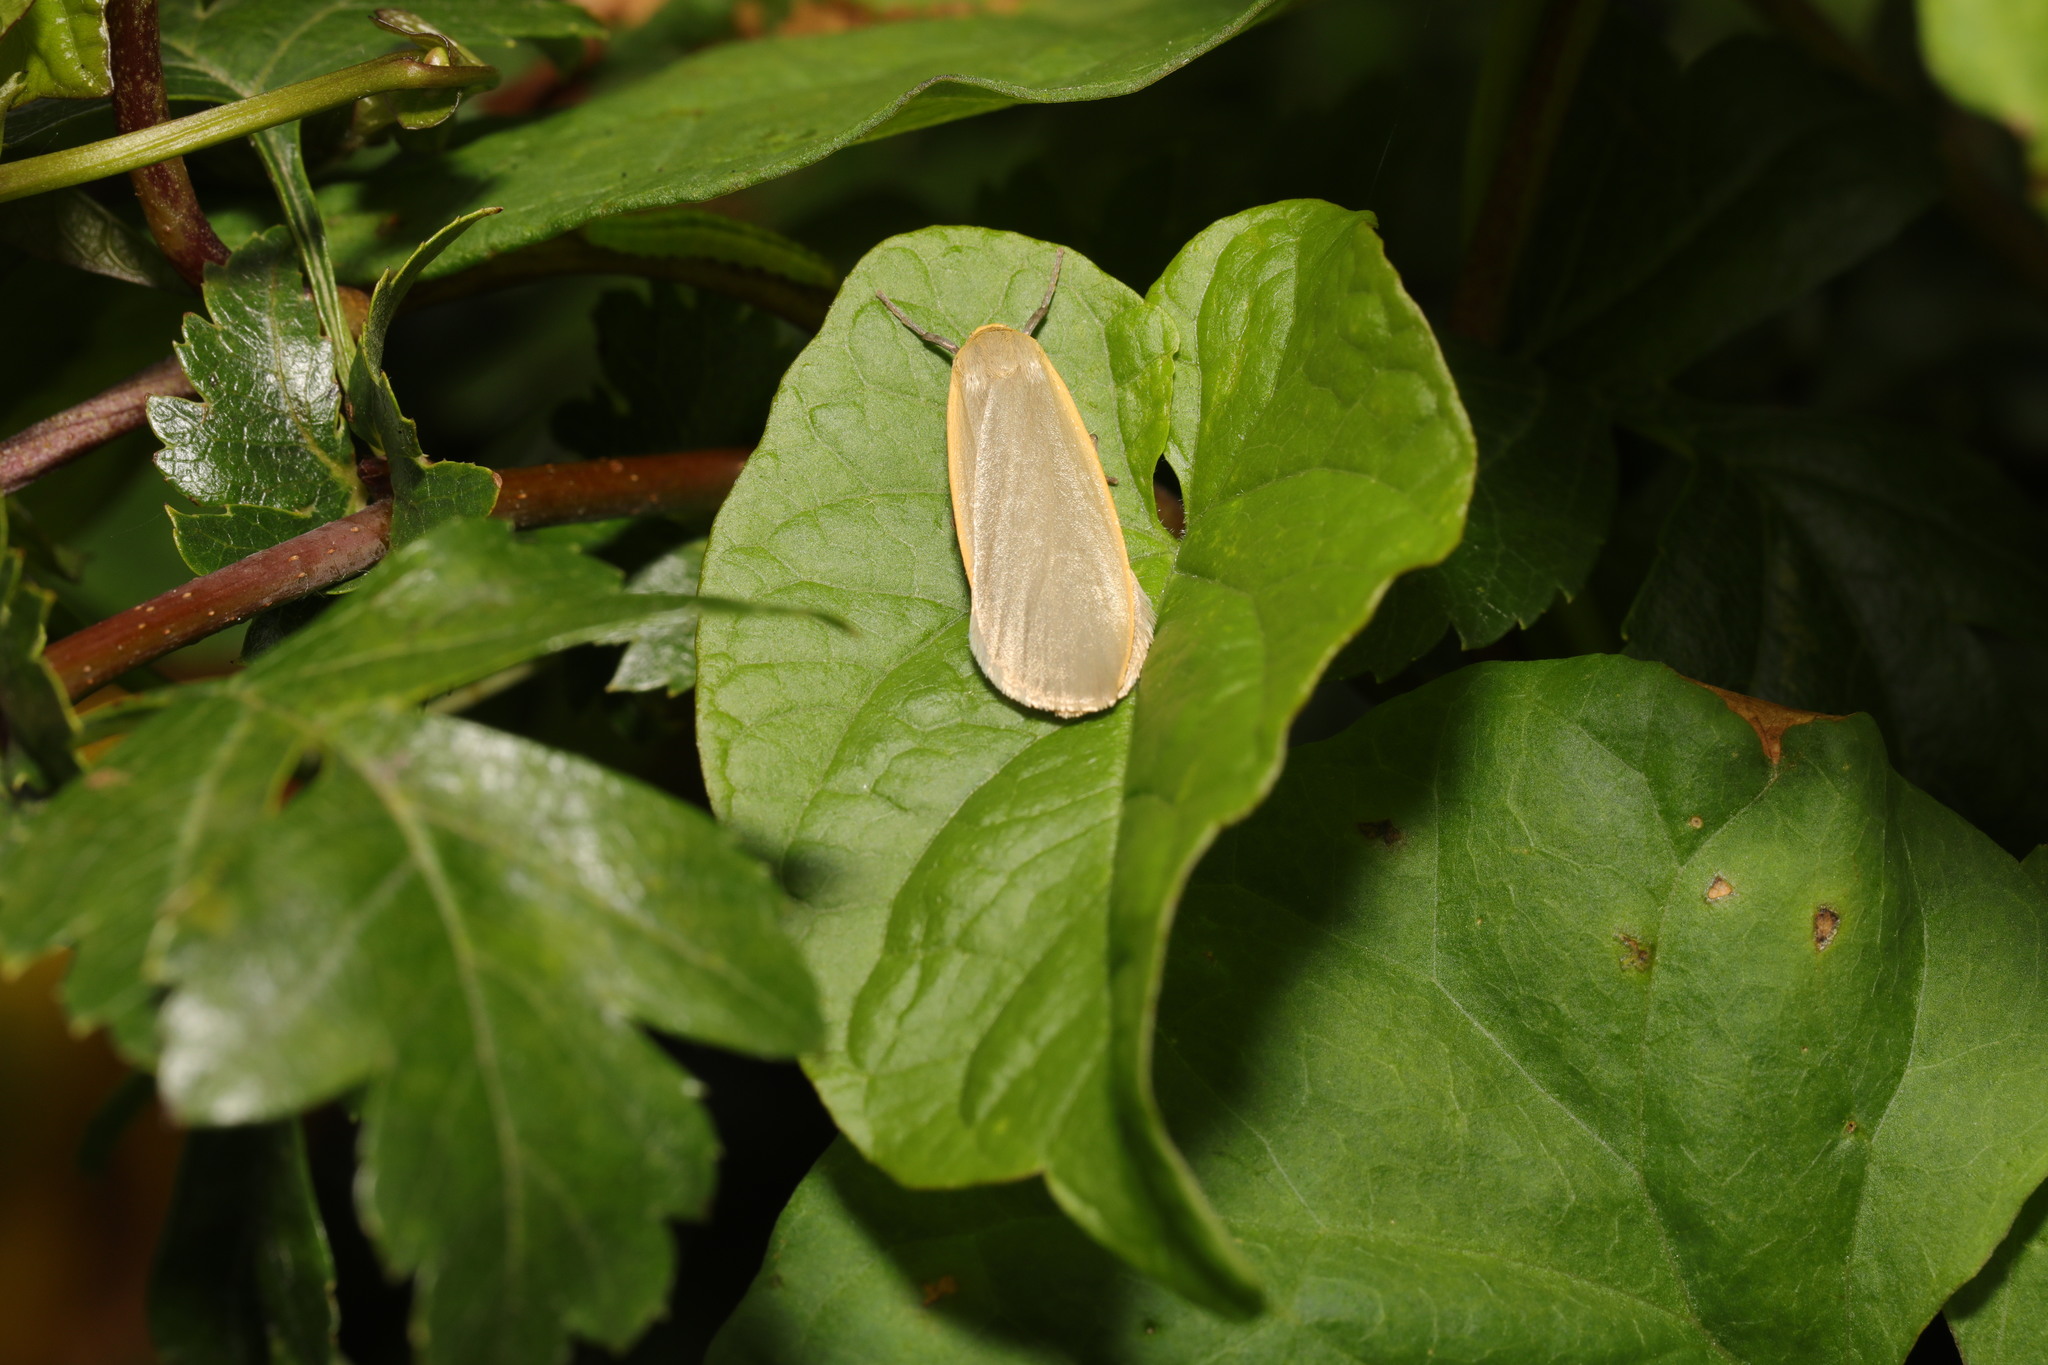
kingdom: Animalia
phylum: Arthropoda
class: Insecta
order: Lepidoptera
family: Erebidae
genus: Collita
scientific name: Collita griseola
